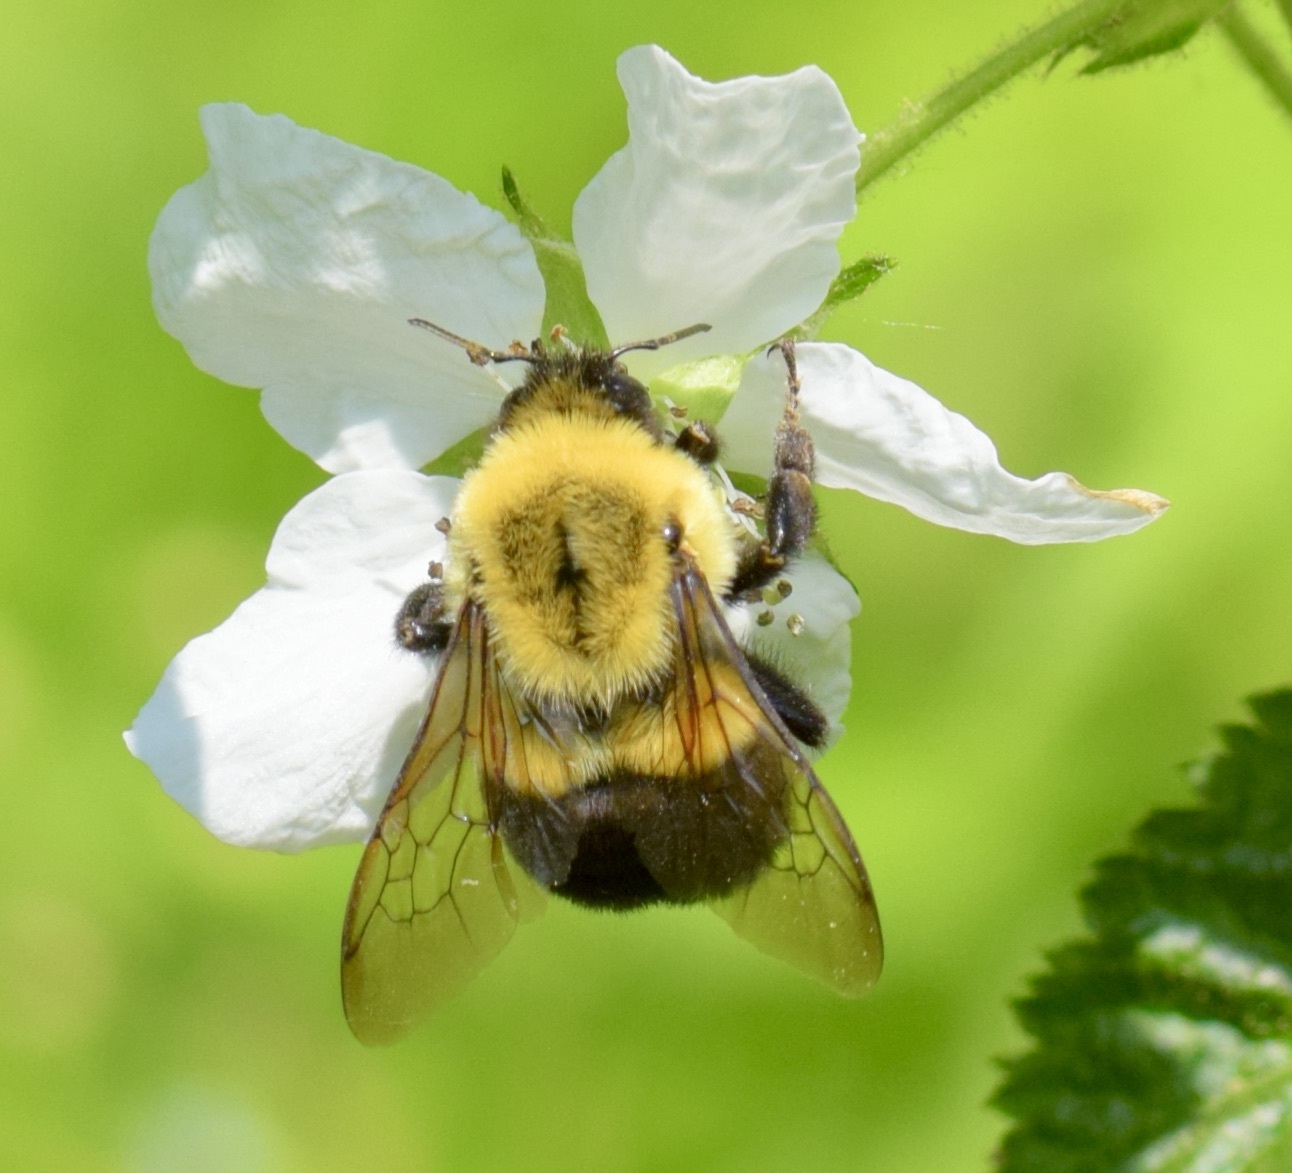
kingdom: Animalia
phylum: Arthropoda
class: Insecta
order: Hymenoptera
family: Apidae
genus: Bombus
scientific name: Bombus impatiens
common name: Common eastern bumble bee
